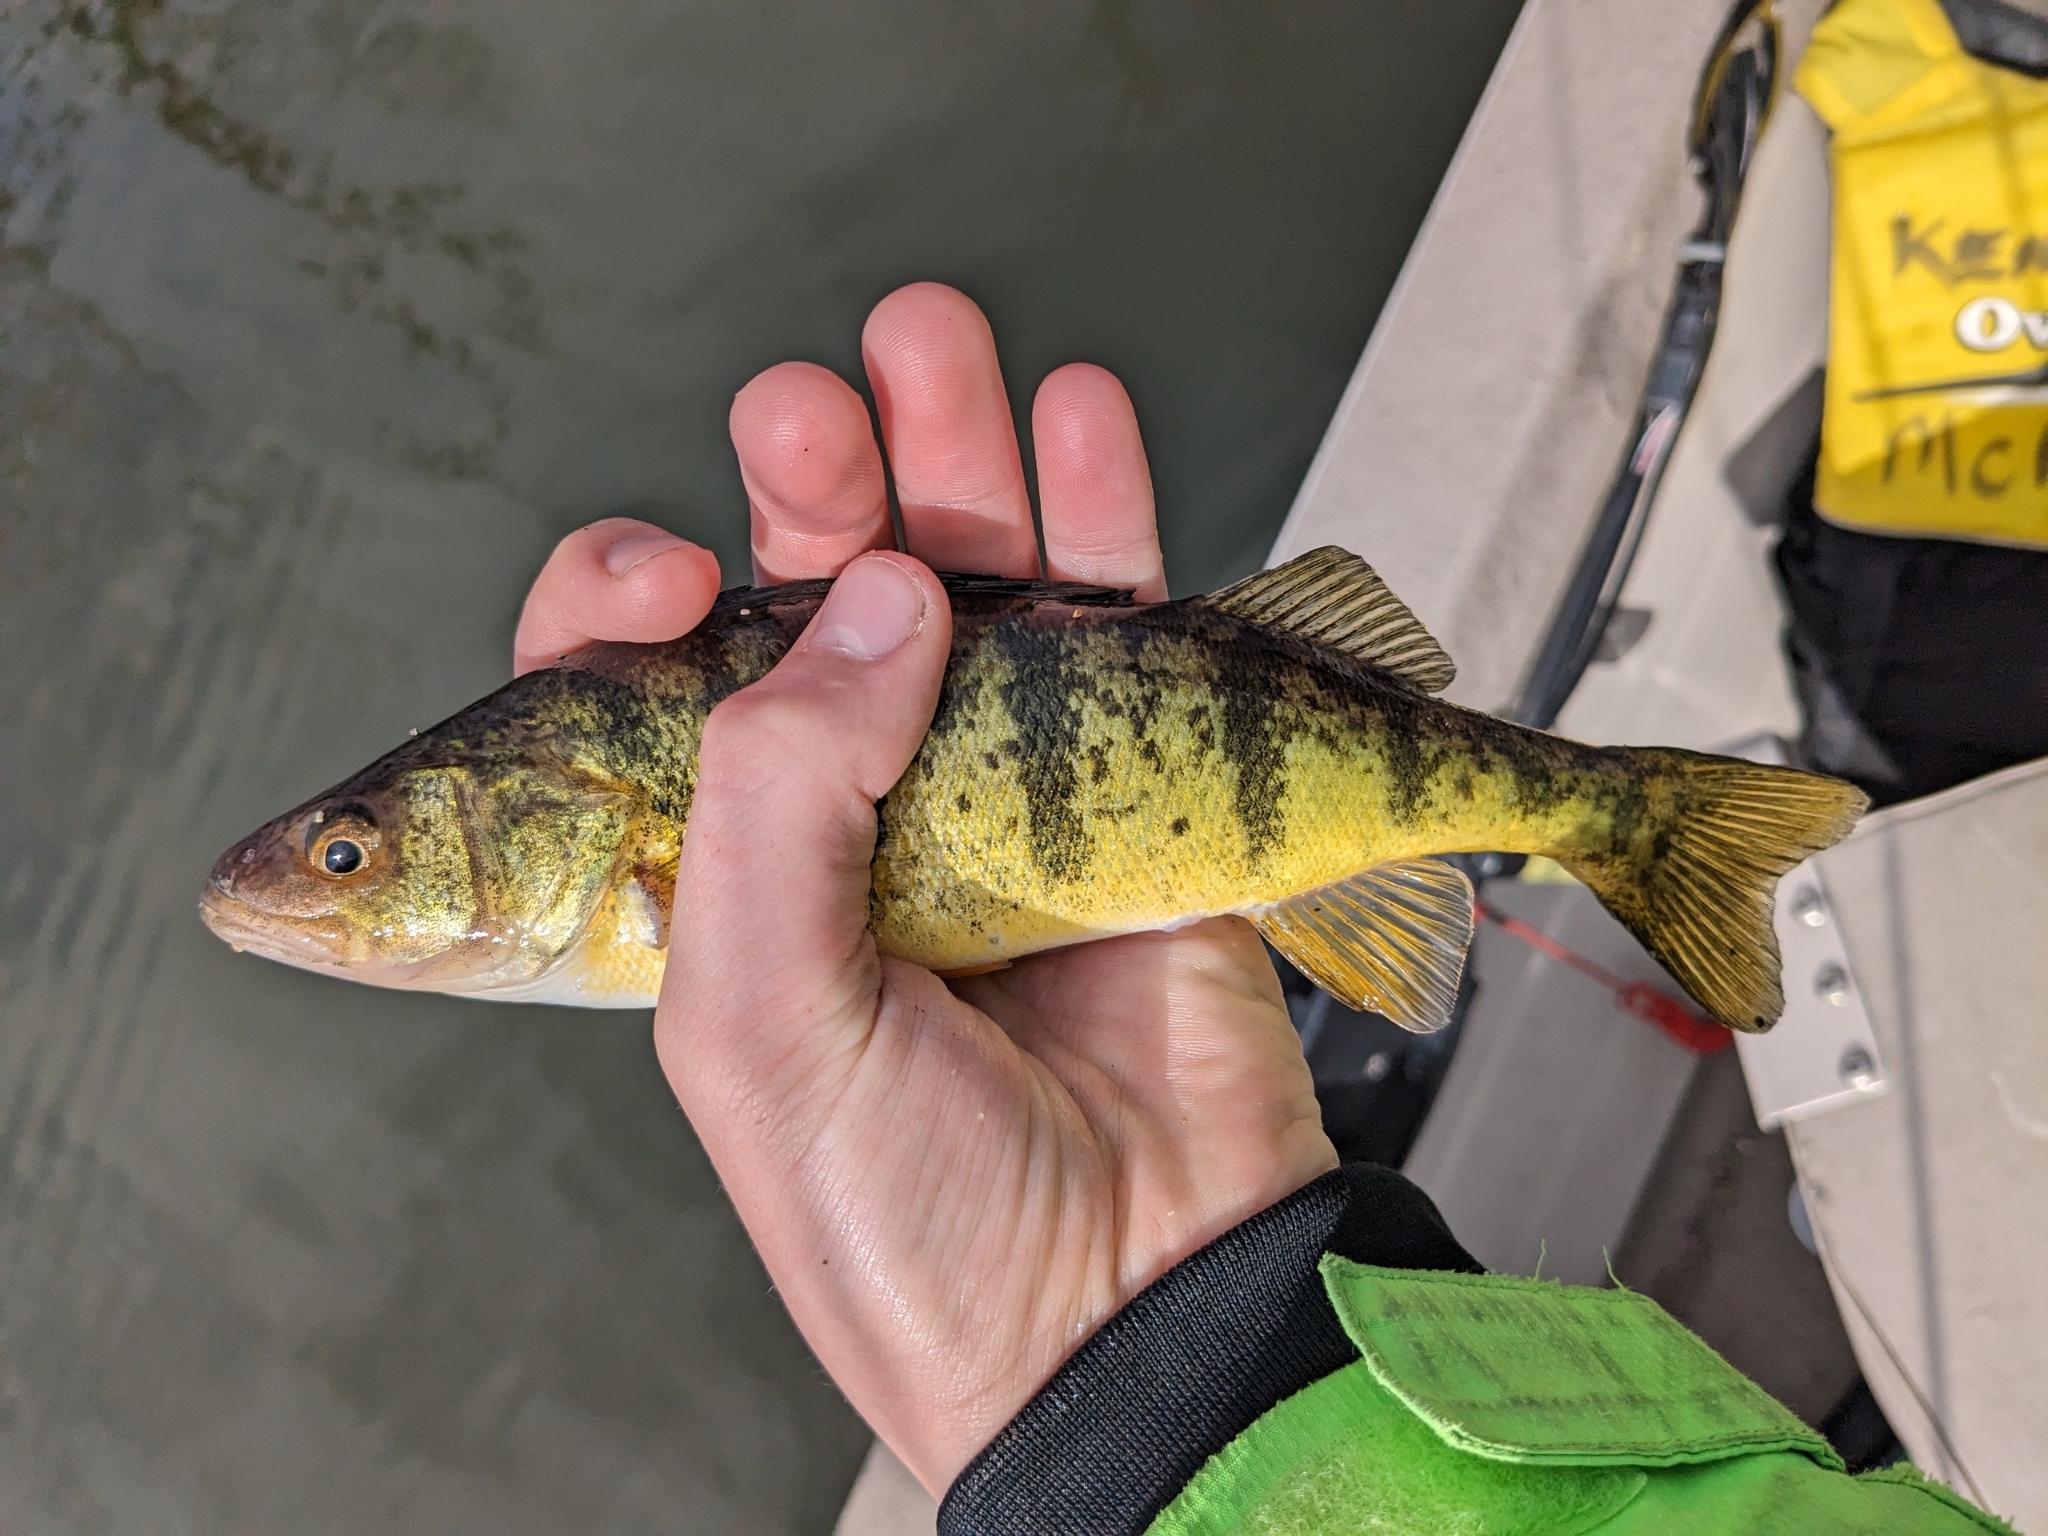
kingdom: Animalia
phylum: Chordata
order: Perciformes
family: Percidae
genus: Perca
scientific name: Perca flavescens
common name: Yellow perch
